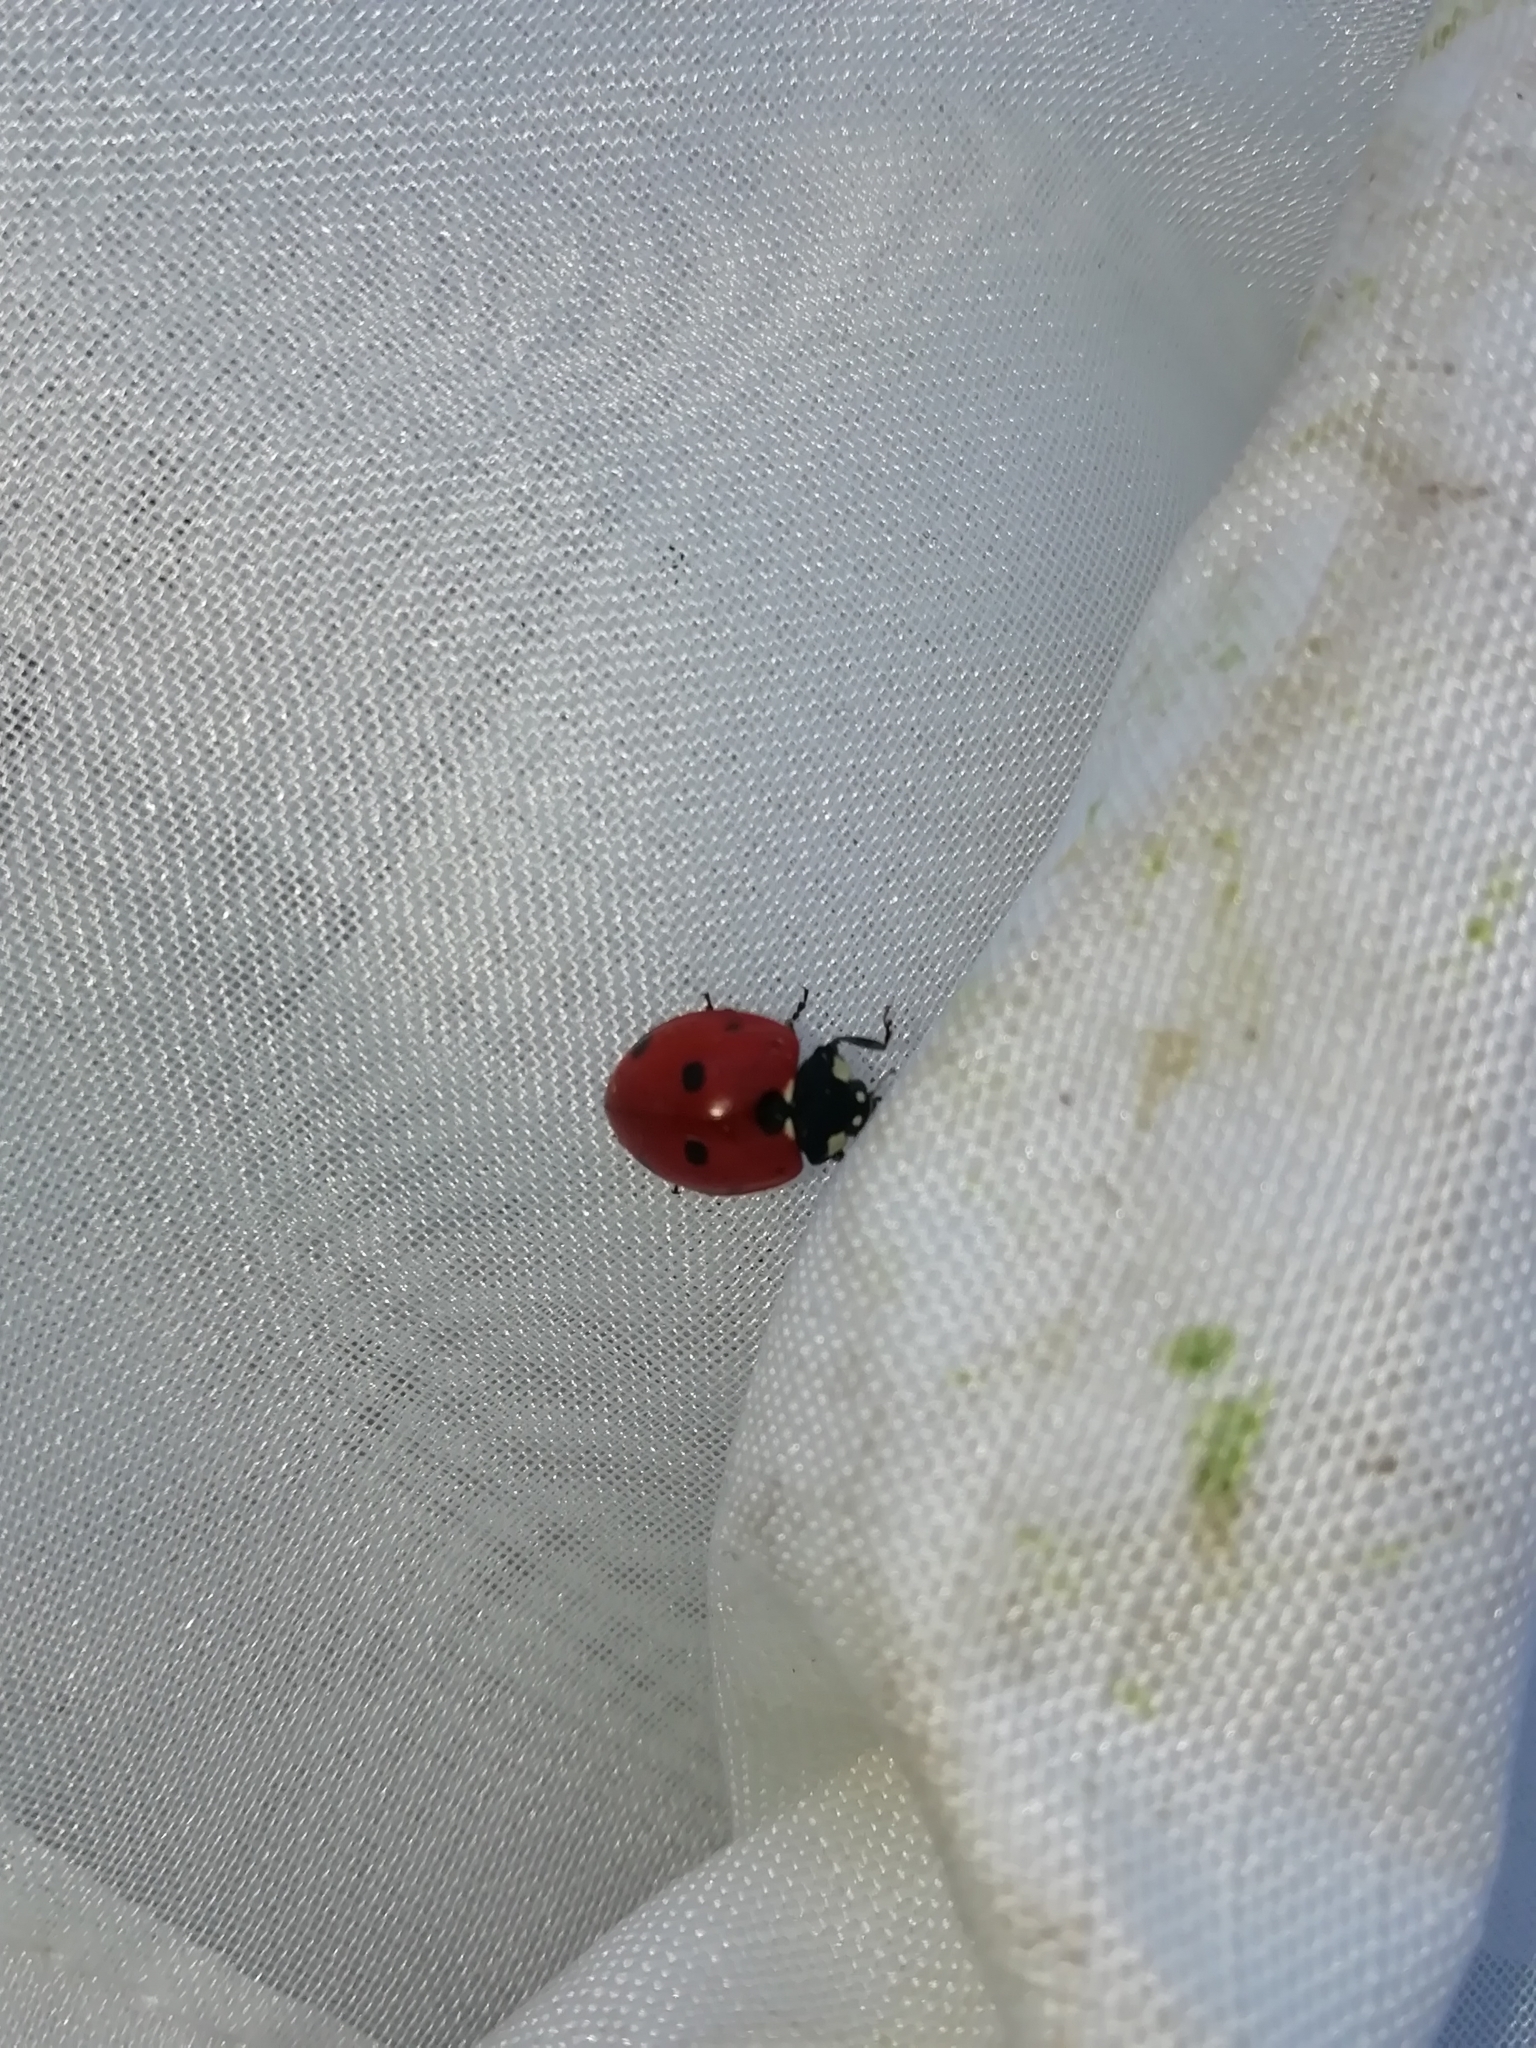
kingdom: Animalia
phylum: Arthropoda
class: Insecta
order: Coleoptera
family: Coccinellidae
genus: Coccinella
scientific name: Coccinella septempunctata
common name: Sevenspotted lady beetle
